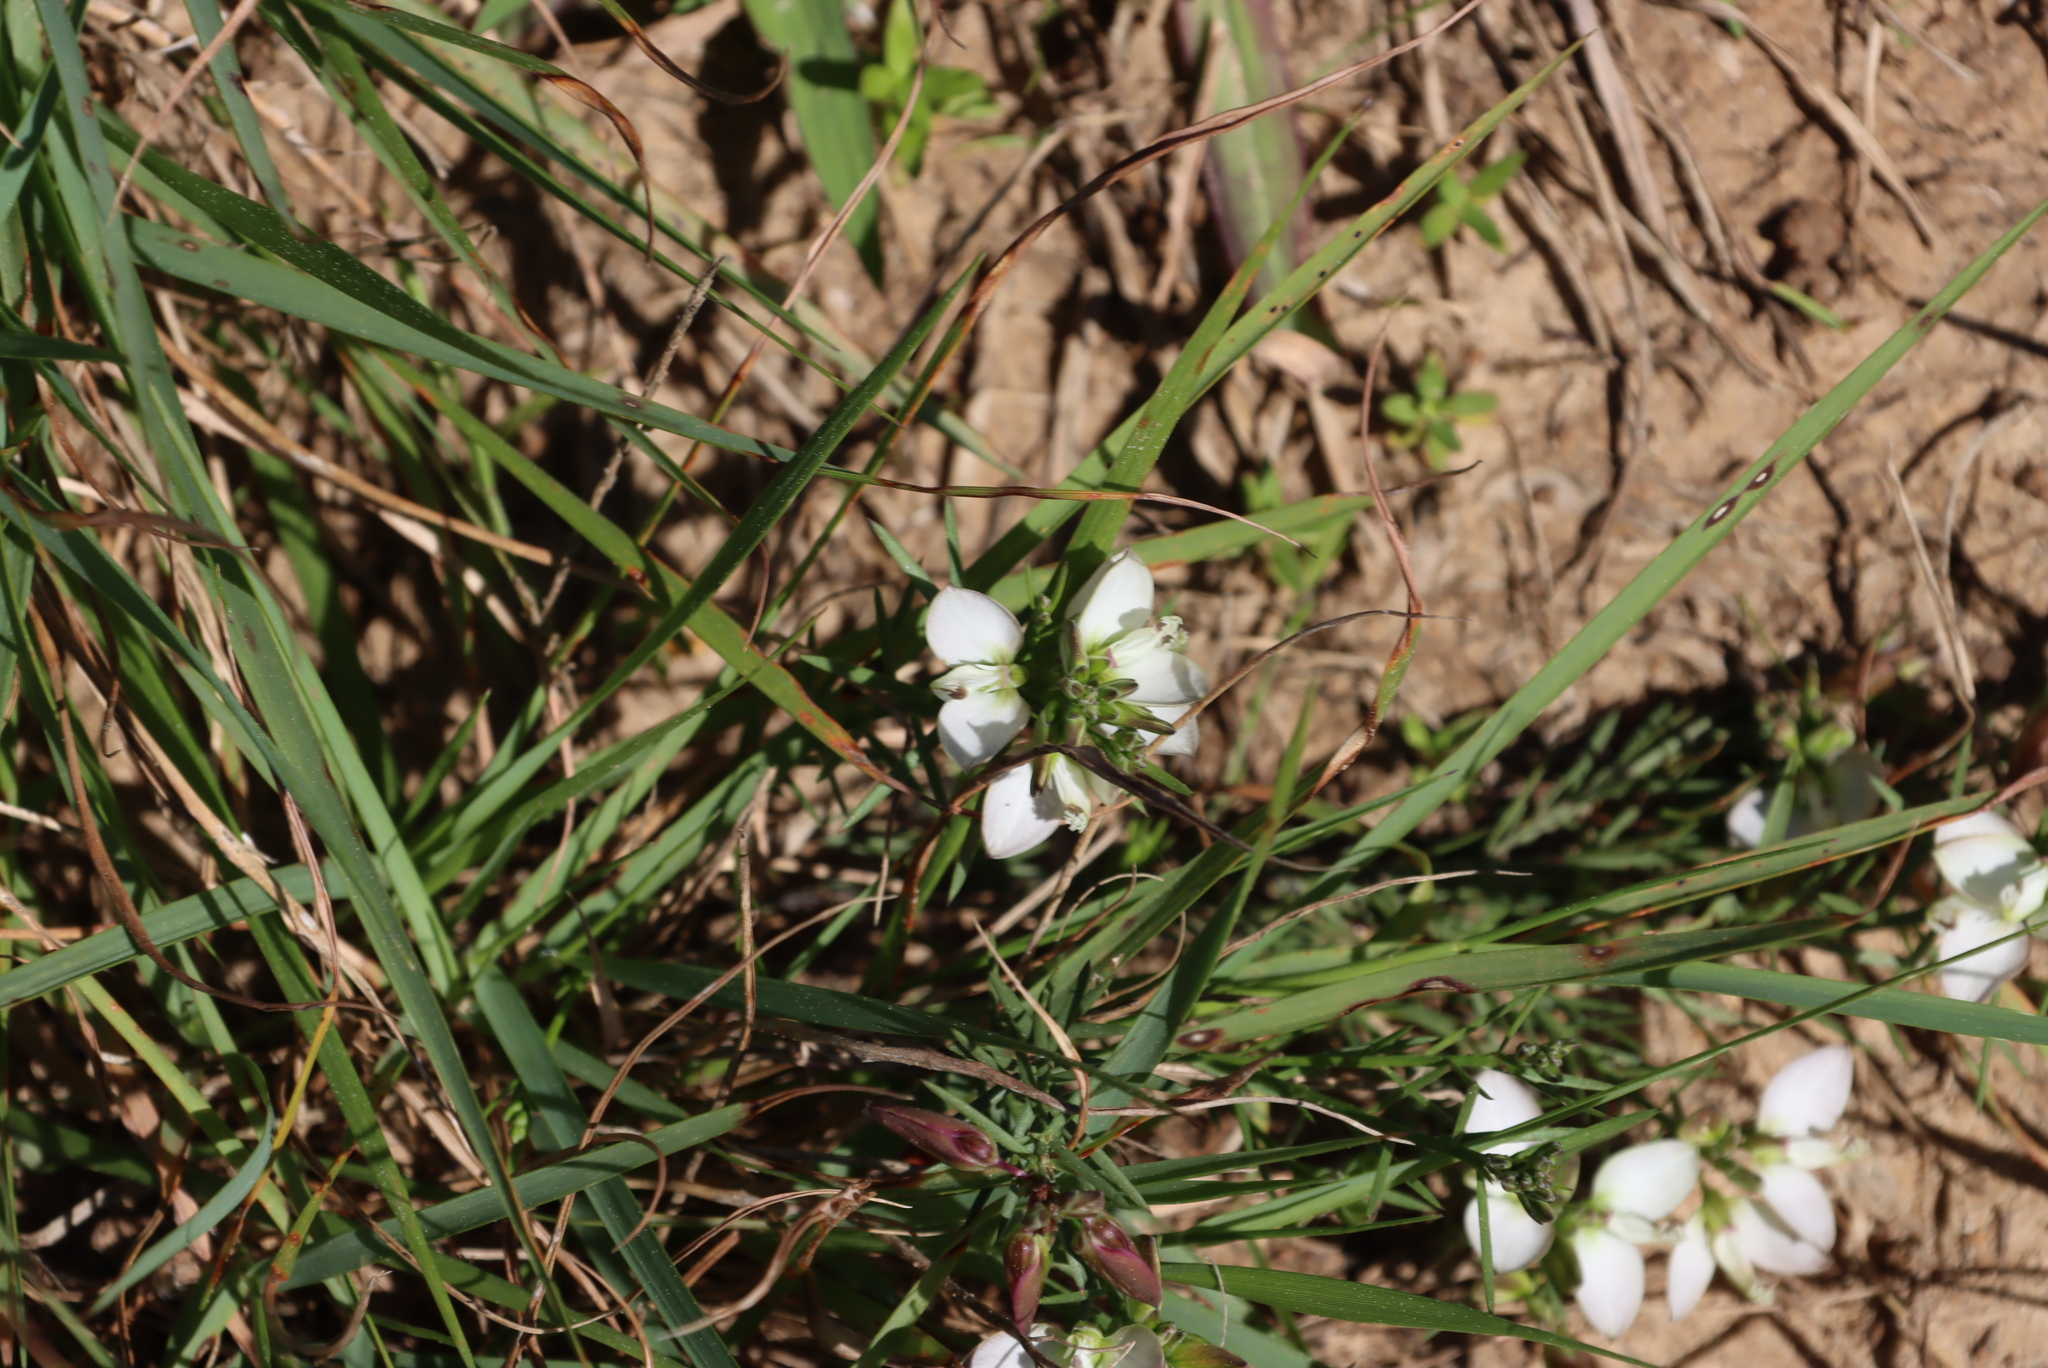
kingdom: Plantae
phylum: Tracheophyta
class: Magnoliopsida
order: Fabales
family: Polygalaceae
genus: Polygala
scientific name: Polygala levynsiana
